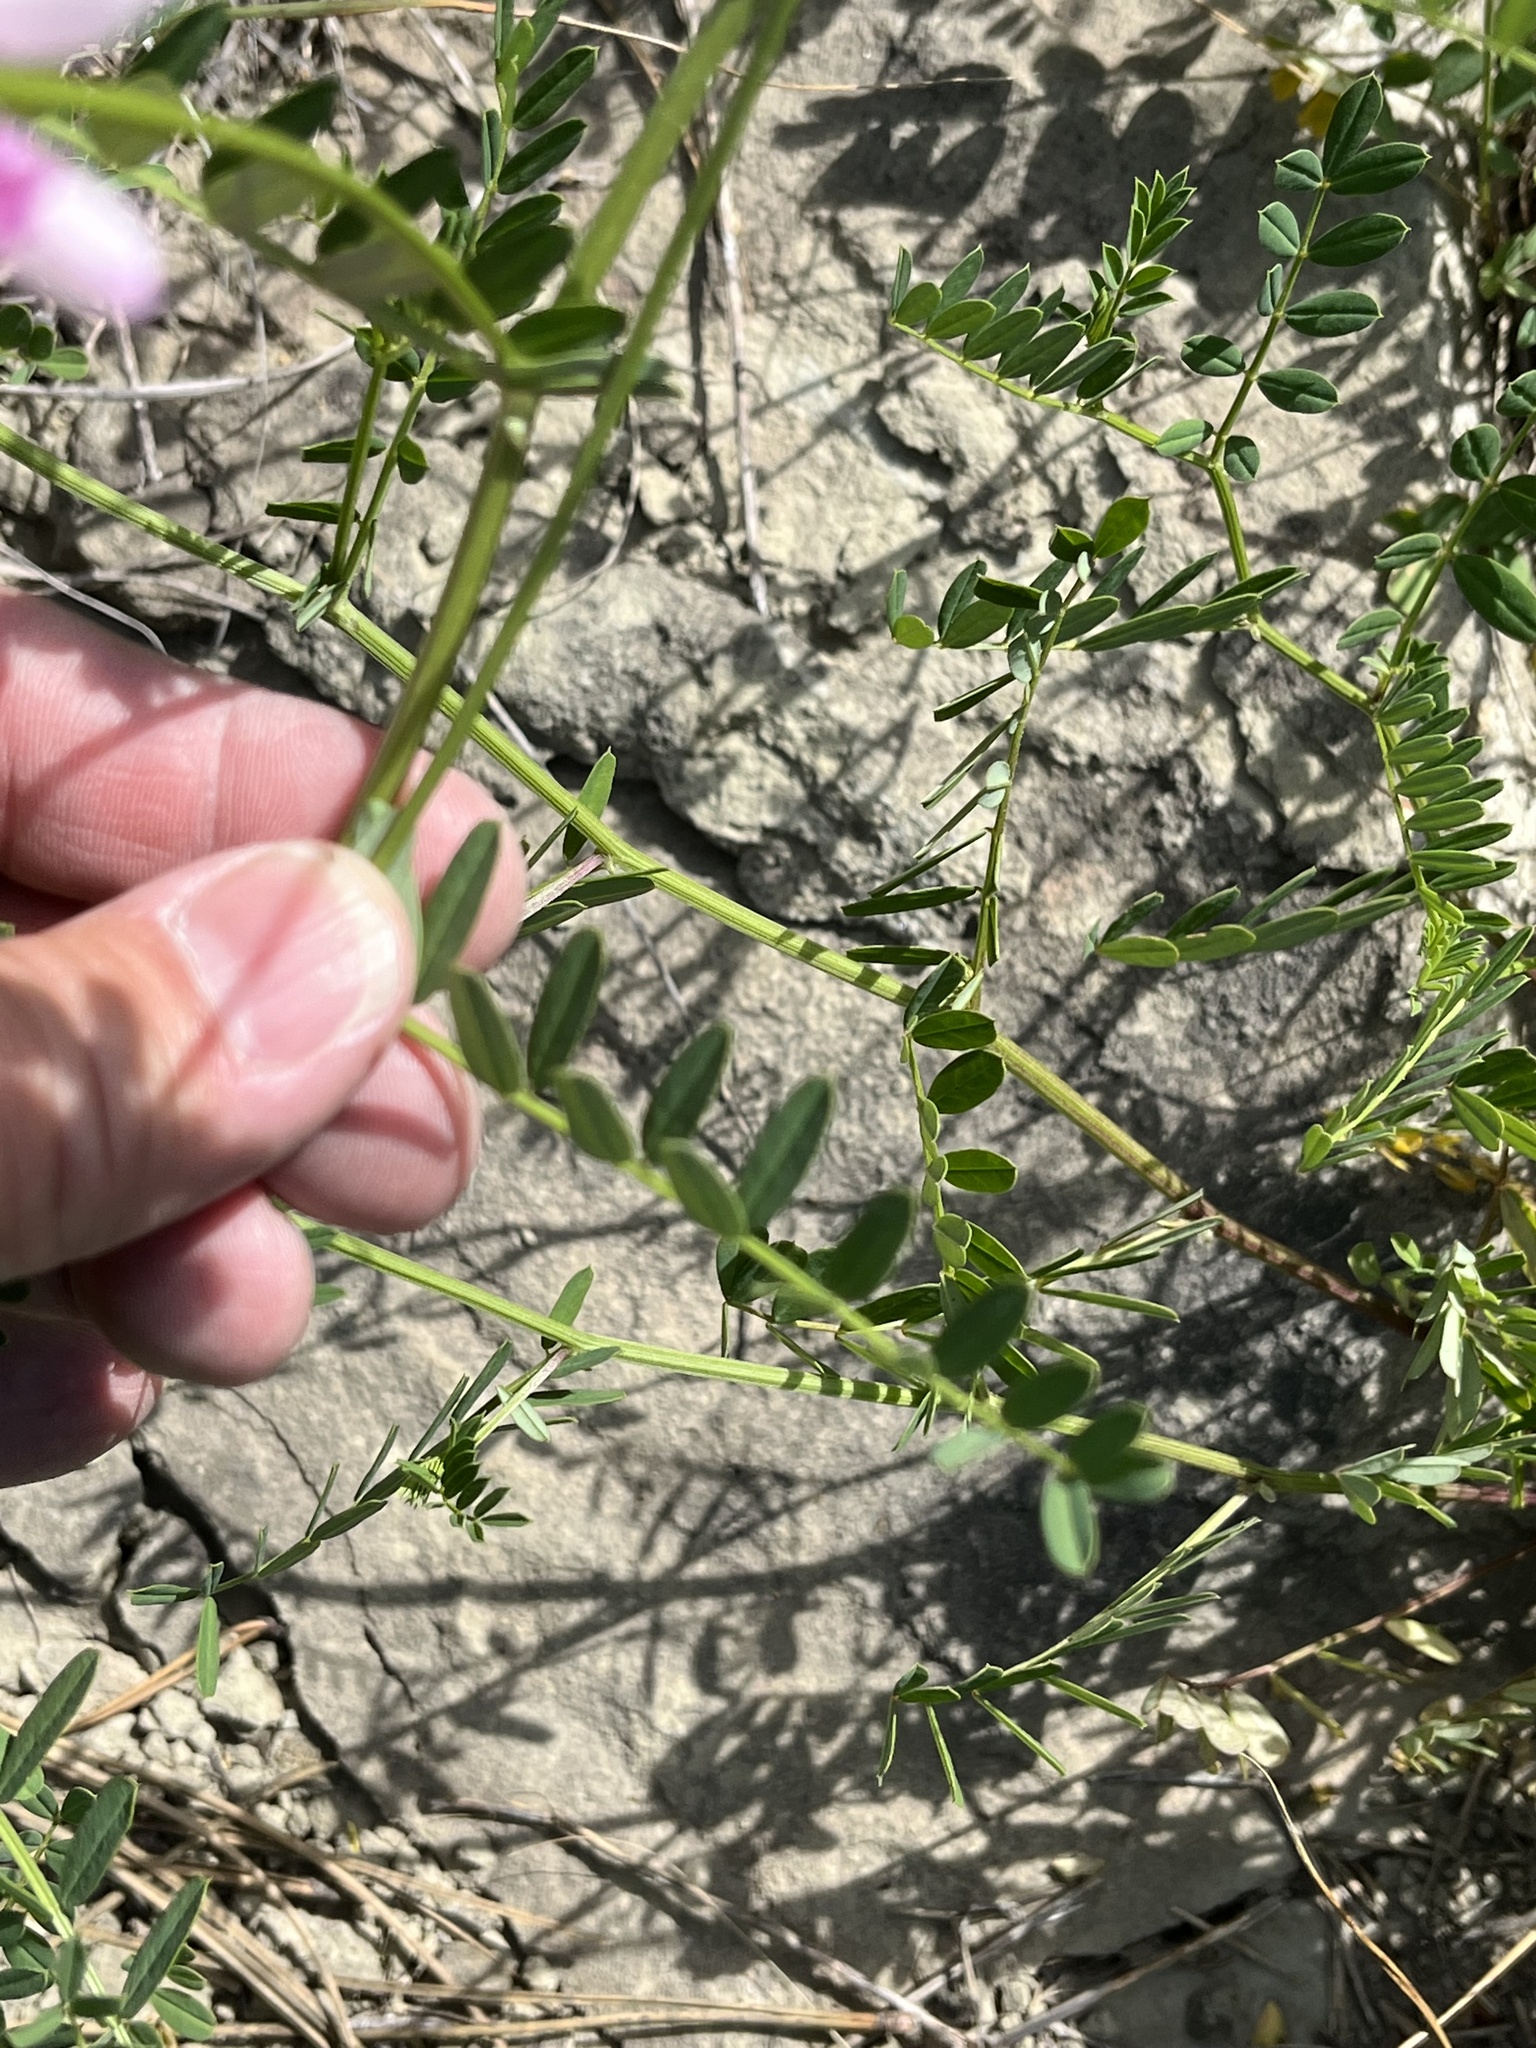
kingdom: Plantae
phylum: Tracheophyta
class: Magnoliopsida
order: Fabales
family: Fabaceae
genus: Coronilla
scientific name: Coronilla varia
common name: Crownvetch
